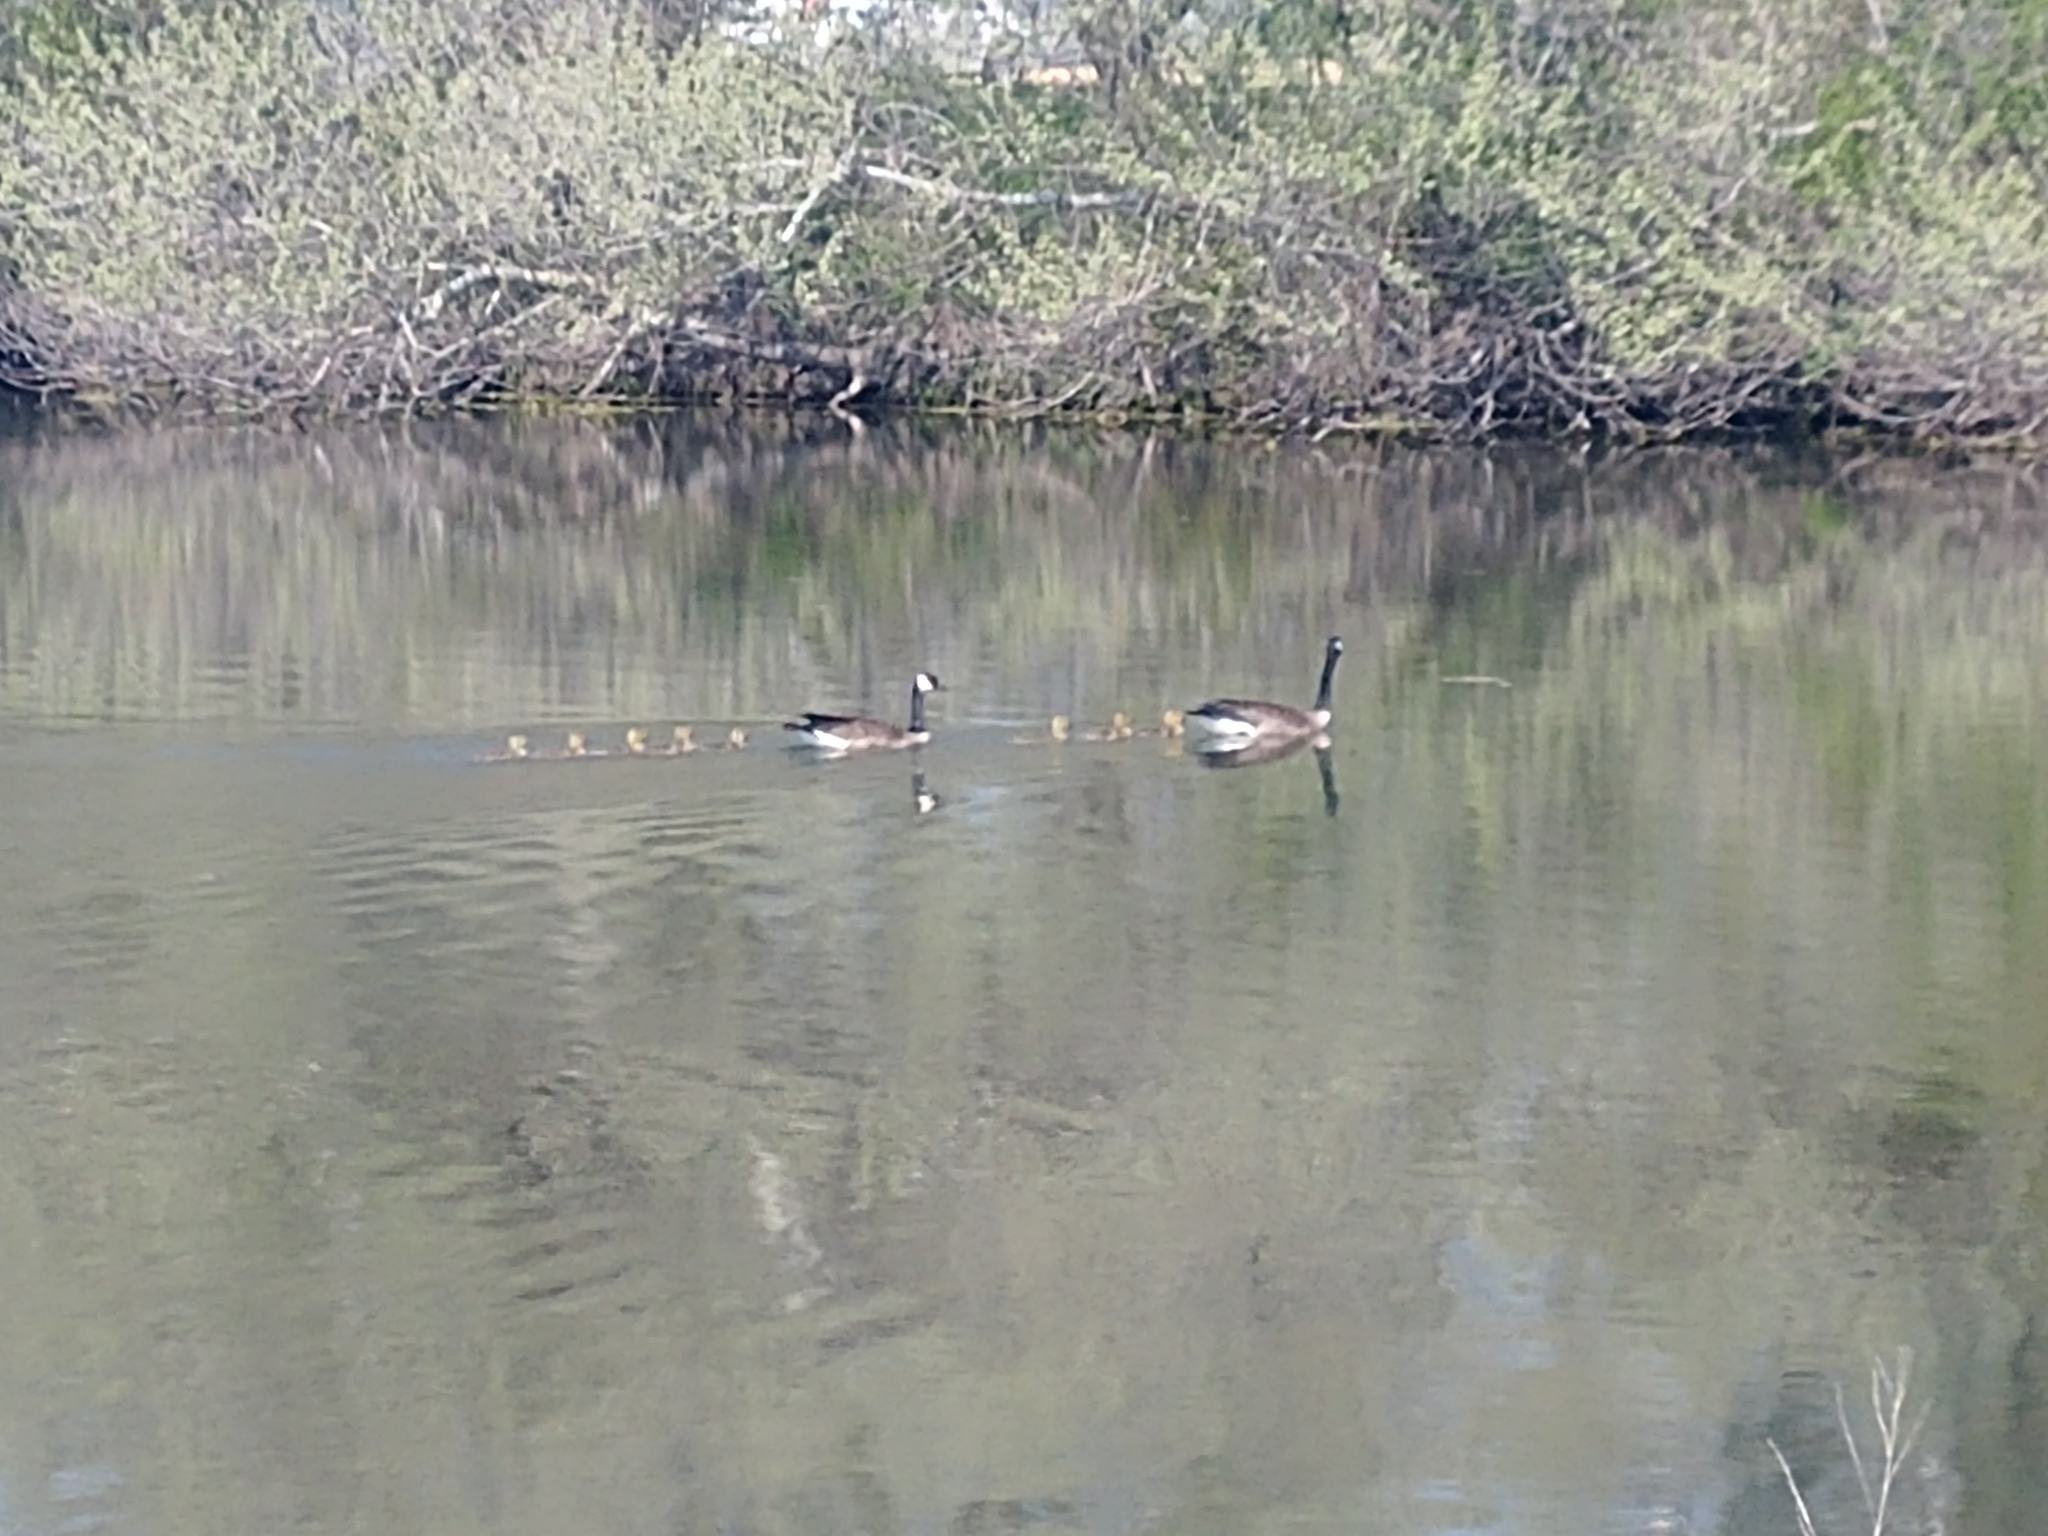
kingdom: Animalia
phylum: Chordata
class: Aves
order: Anseriformes
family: Anatidae
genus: Branta
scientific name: Branta canadensis
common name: Canada goose
